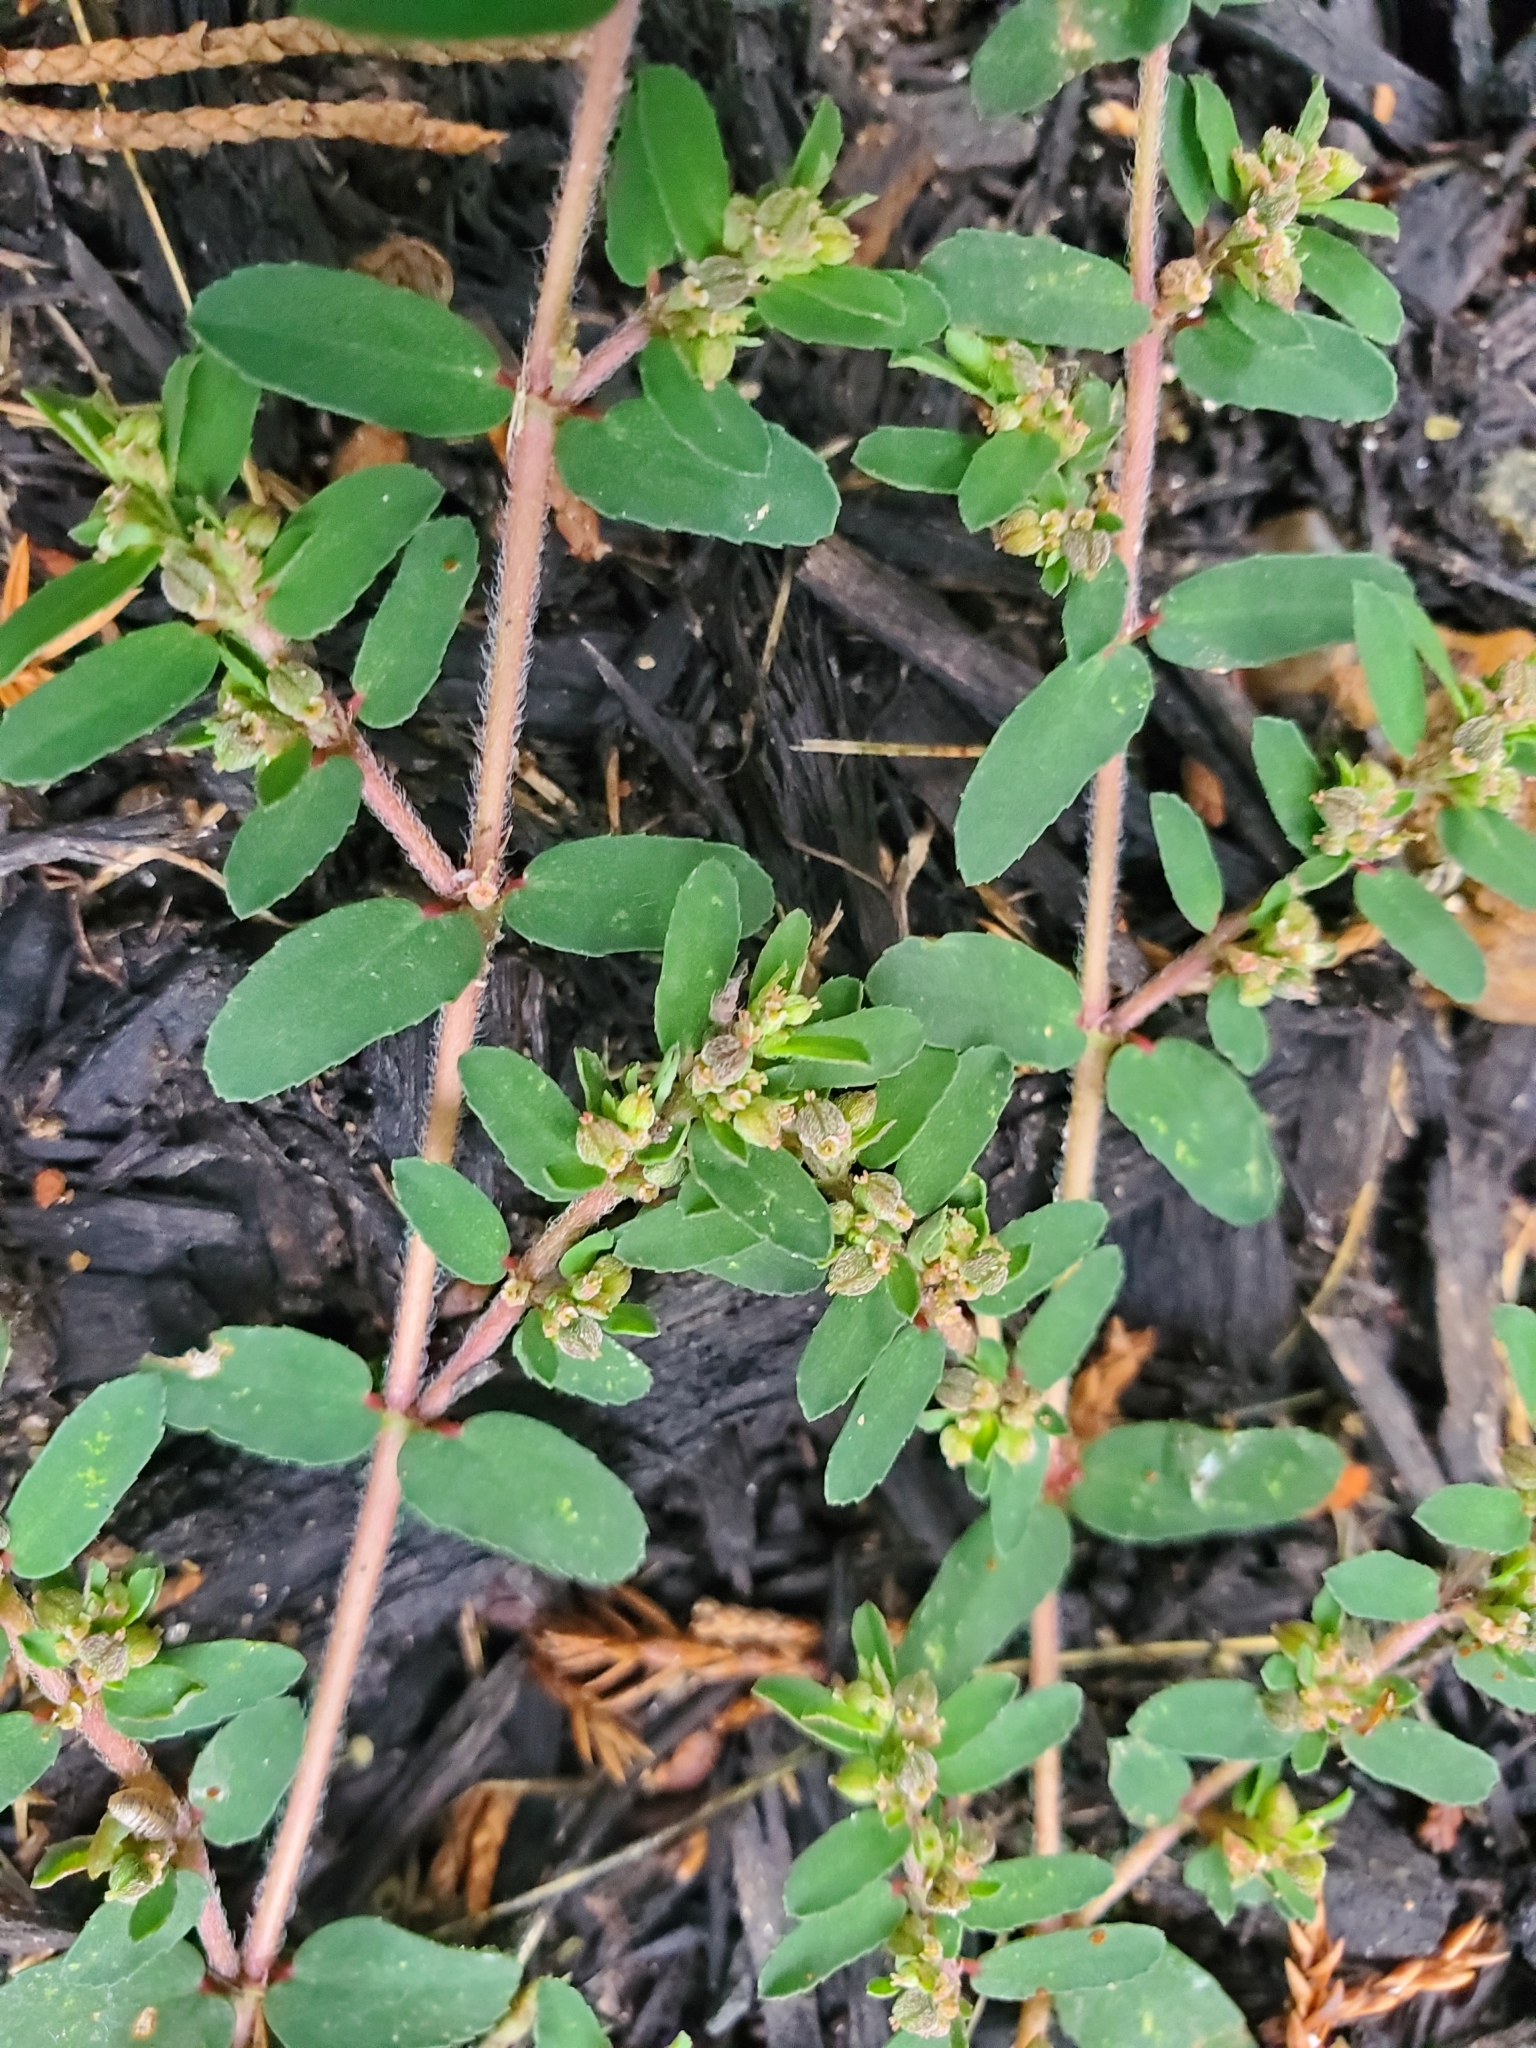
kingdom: Plantae
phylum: Tracheophyta
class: Magnoliopsida
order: Malpighiales
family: Euphorbiaceae
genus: Euphorbia
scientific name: Euphorbia maculata
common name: Spotted spurge
